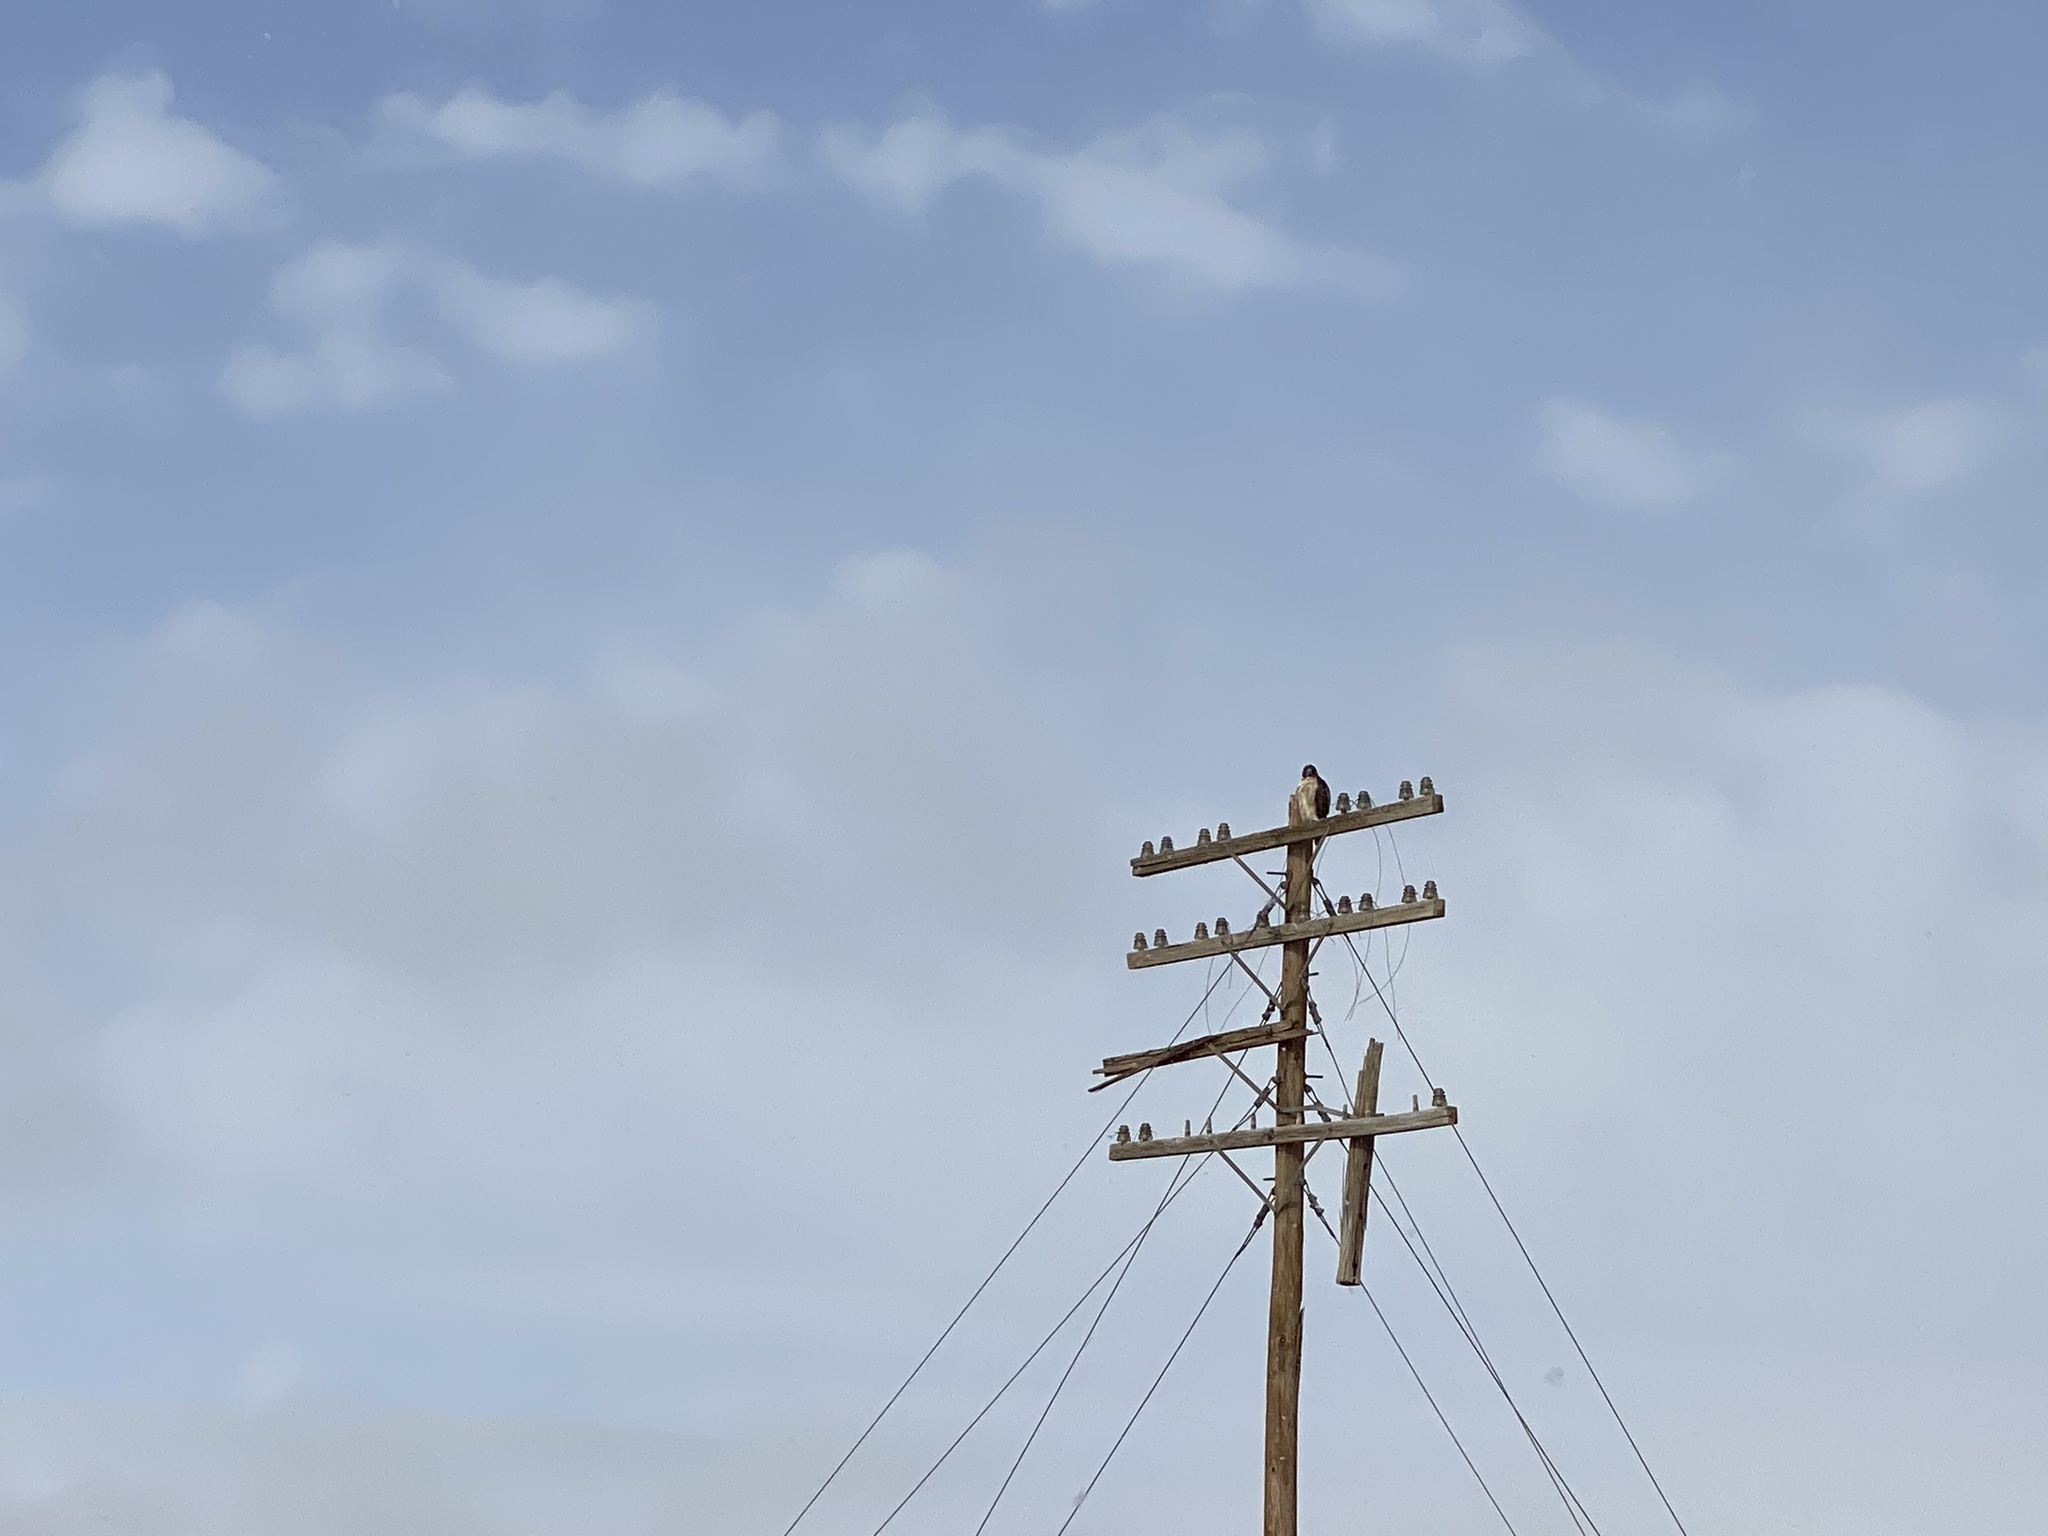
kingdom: Animalia
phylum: Chordata
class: Aves
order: Accipitriformes
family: Accipitridae
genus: Buteo
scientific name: Buteo jamaicensis
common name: Red-tailed hawk
